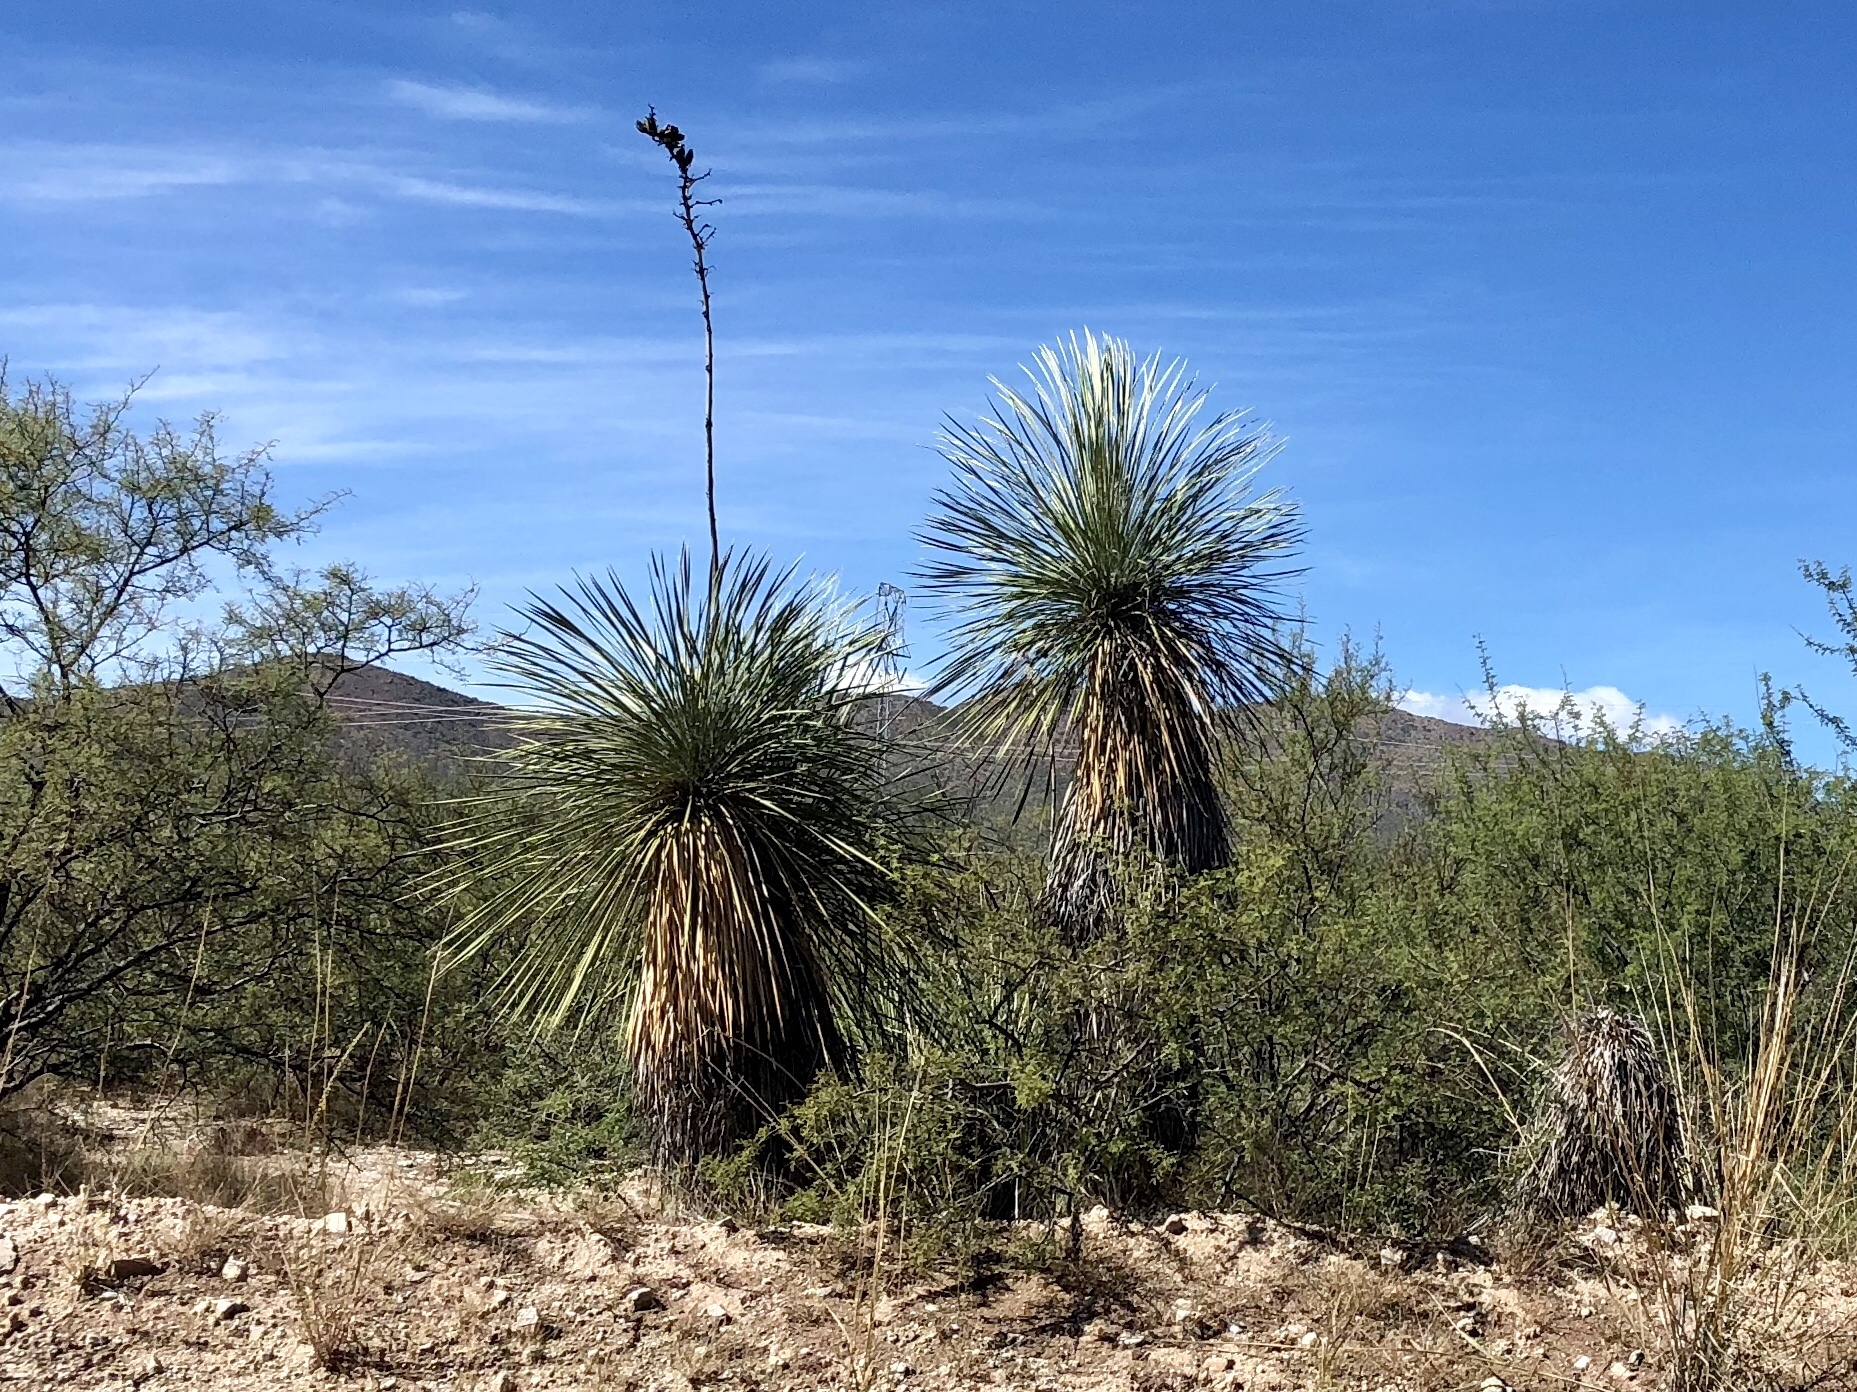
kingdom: Plantae
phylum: Tracheophyta
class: Liliopsida
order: Asparagales
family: Asparagaceae
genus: Yucca
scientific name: Yucca elata
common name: Palmella
